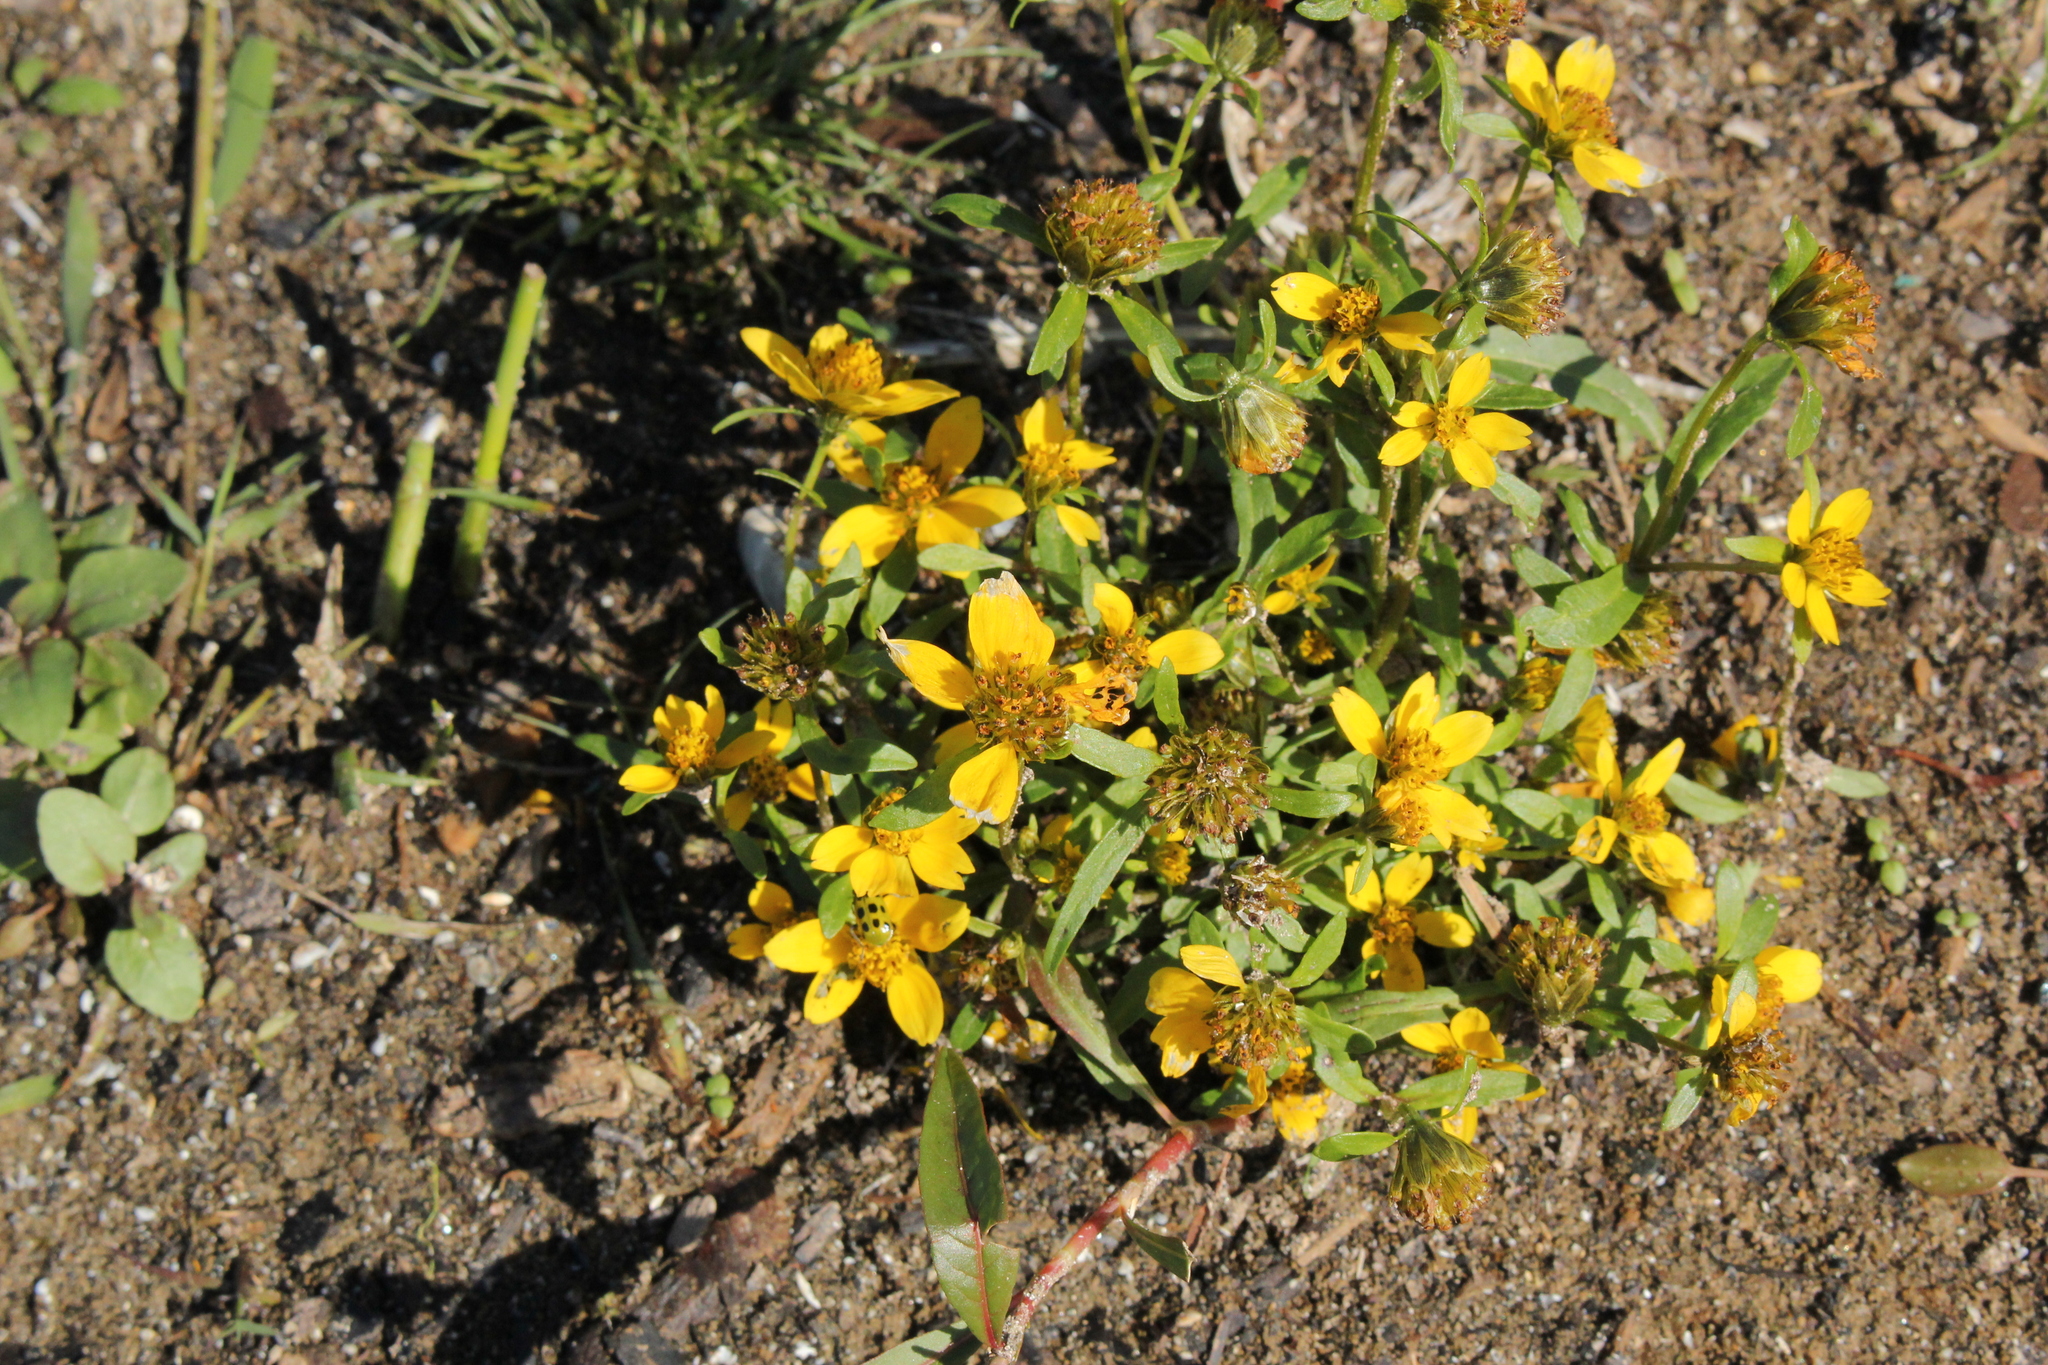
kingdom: Plantae
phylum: Tracheophyta
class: Magnoliopsida
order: Asterales
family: Asteraceae
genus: Bidens
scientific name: Bidens cernua
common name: Nodding bur-marigold
